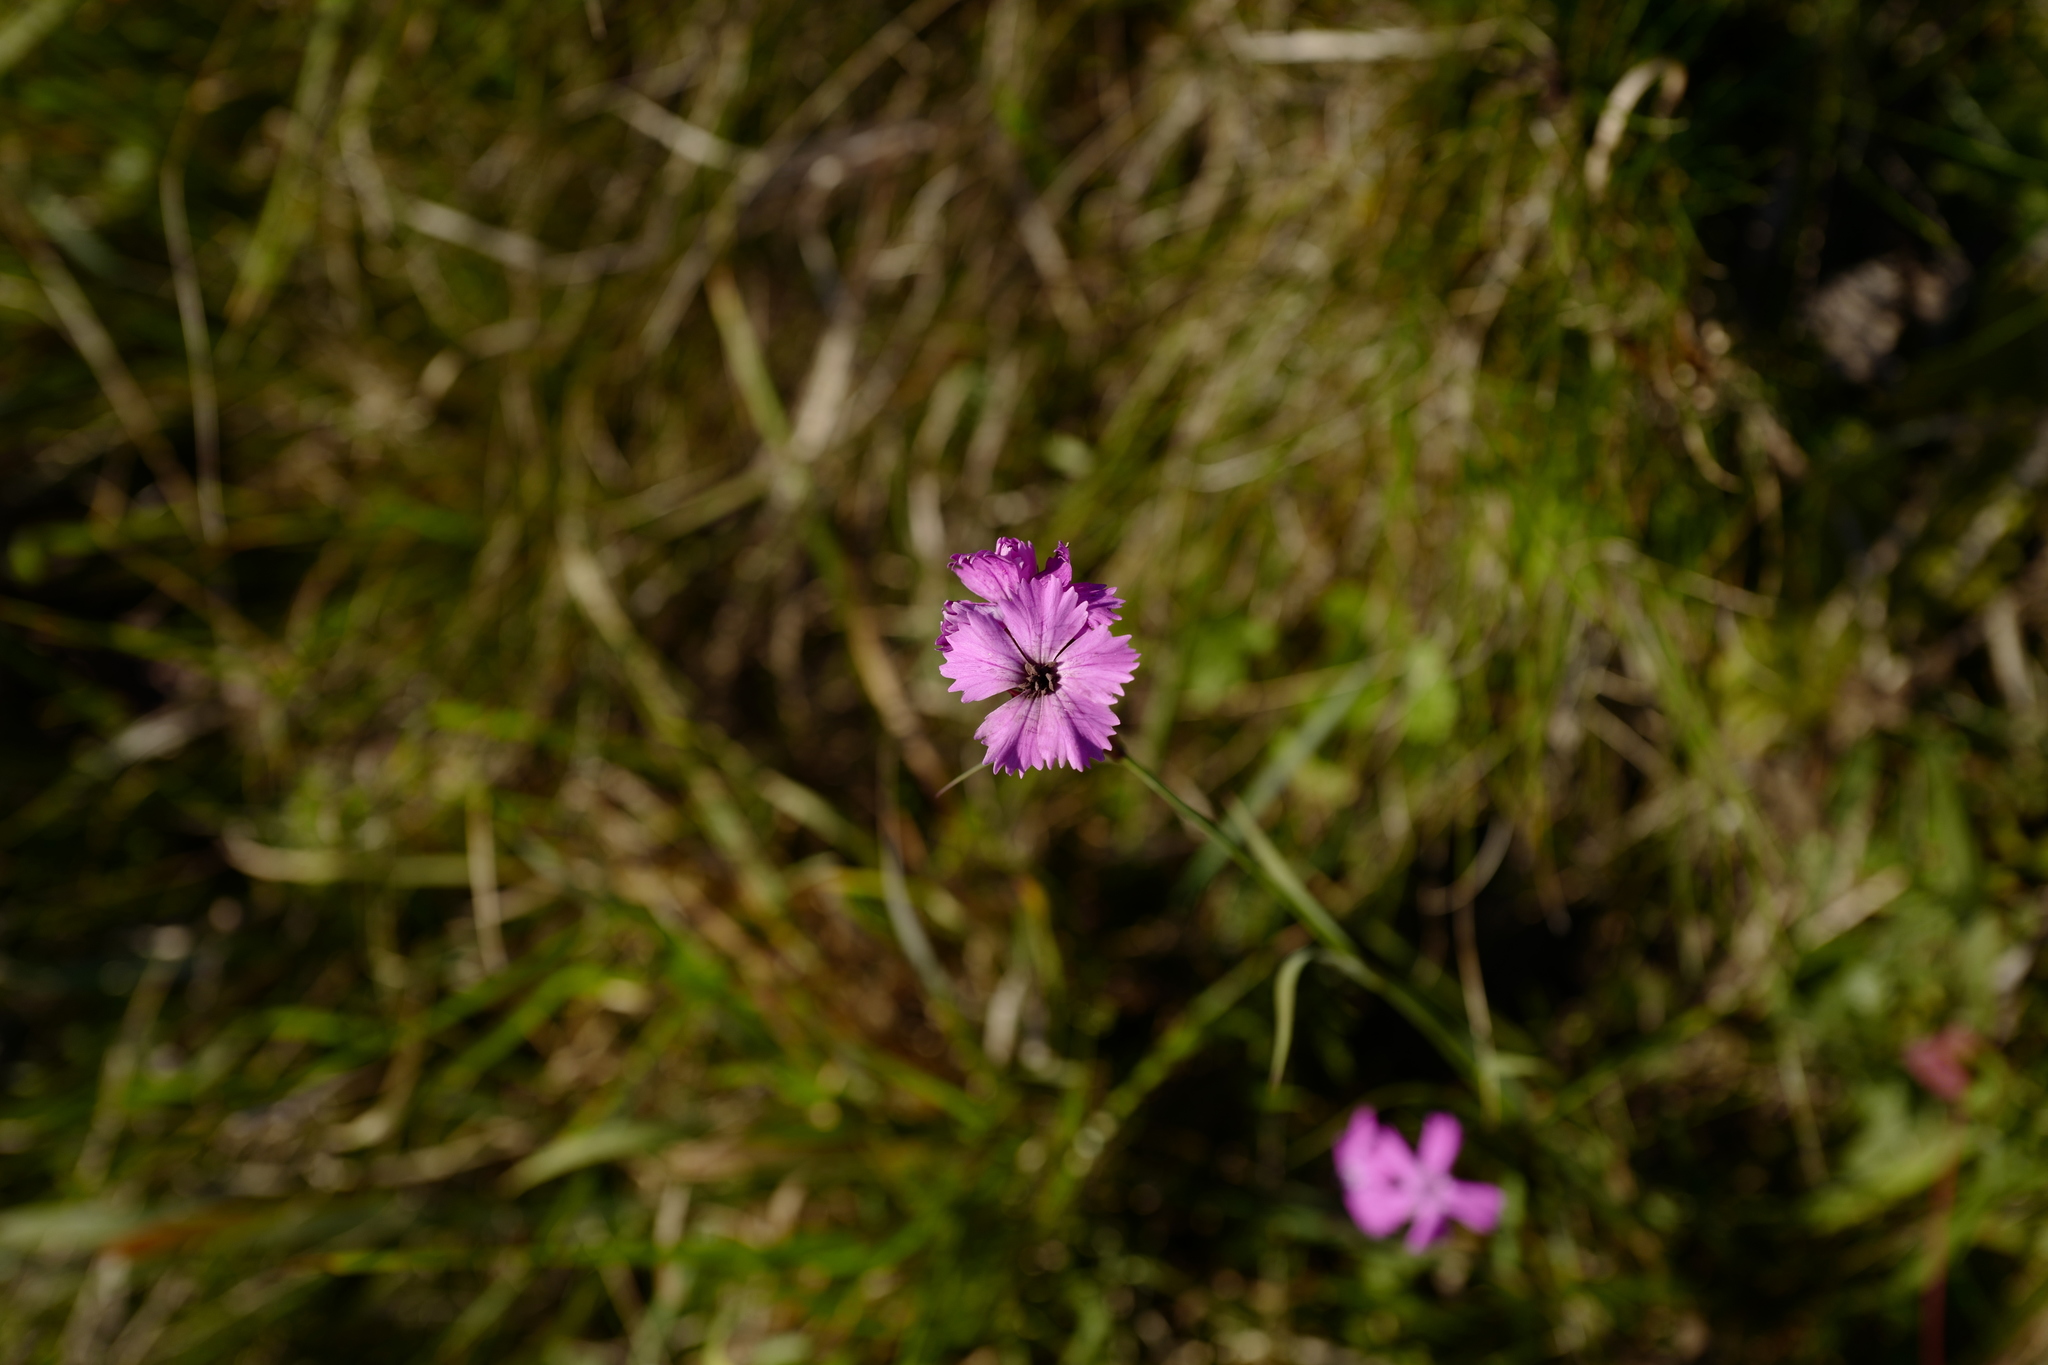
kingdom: Plantae
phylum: Tracheophyta
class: Magnoliopsida
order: Caryophyllales
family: Caryophyllaceae
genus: Dianthus
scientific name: Dianthus carthusianorum
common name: Carthusian pink
